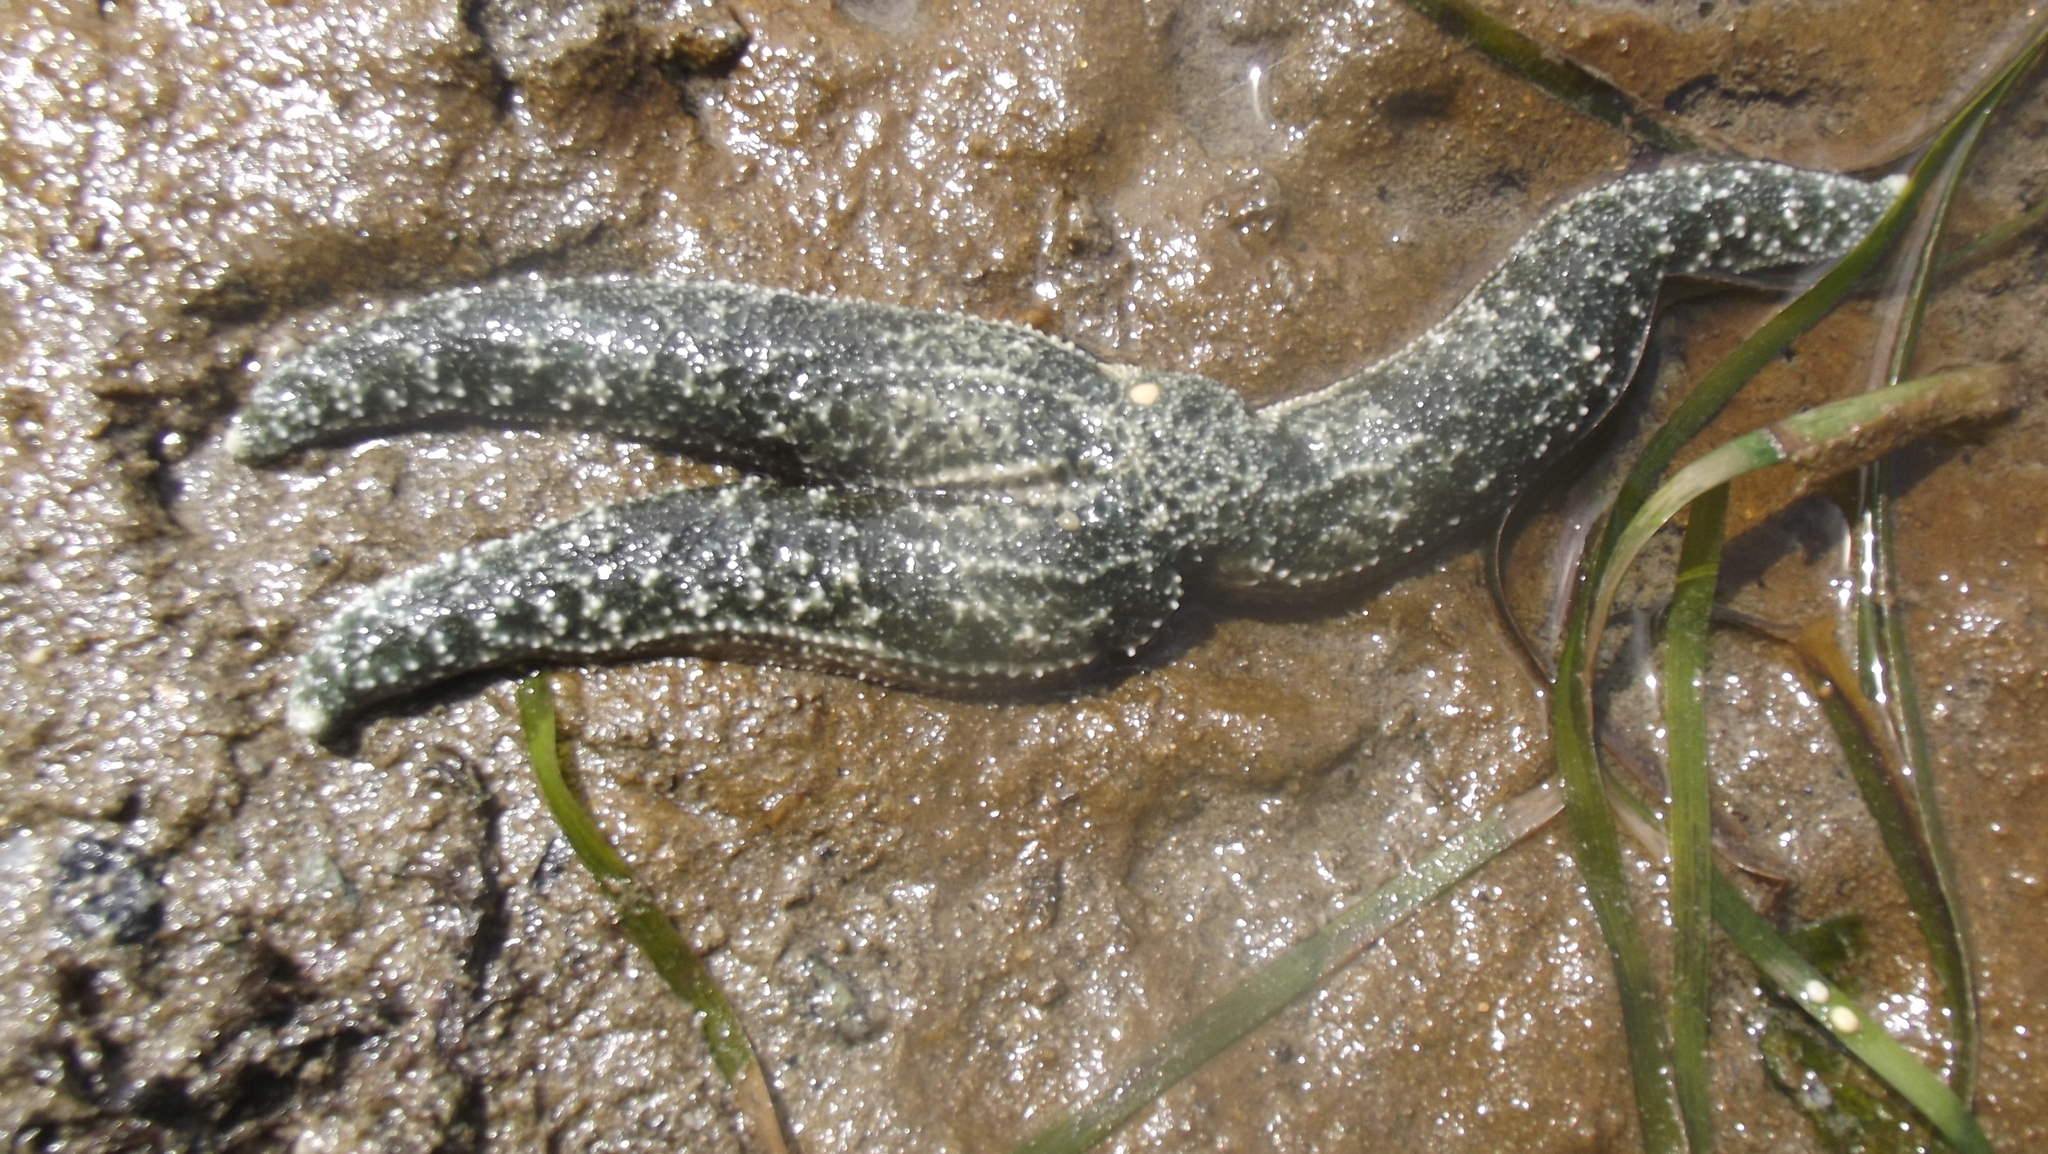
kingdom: Animalia
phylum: Echinodermata
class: Asteroidea
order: Forcipulatida
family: Asteriidae
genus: Evasterias
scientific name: Evasterias troschelii
